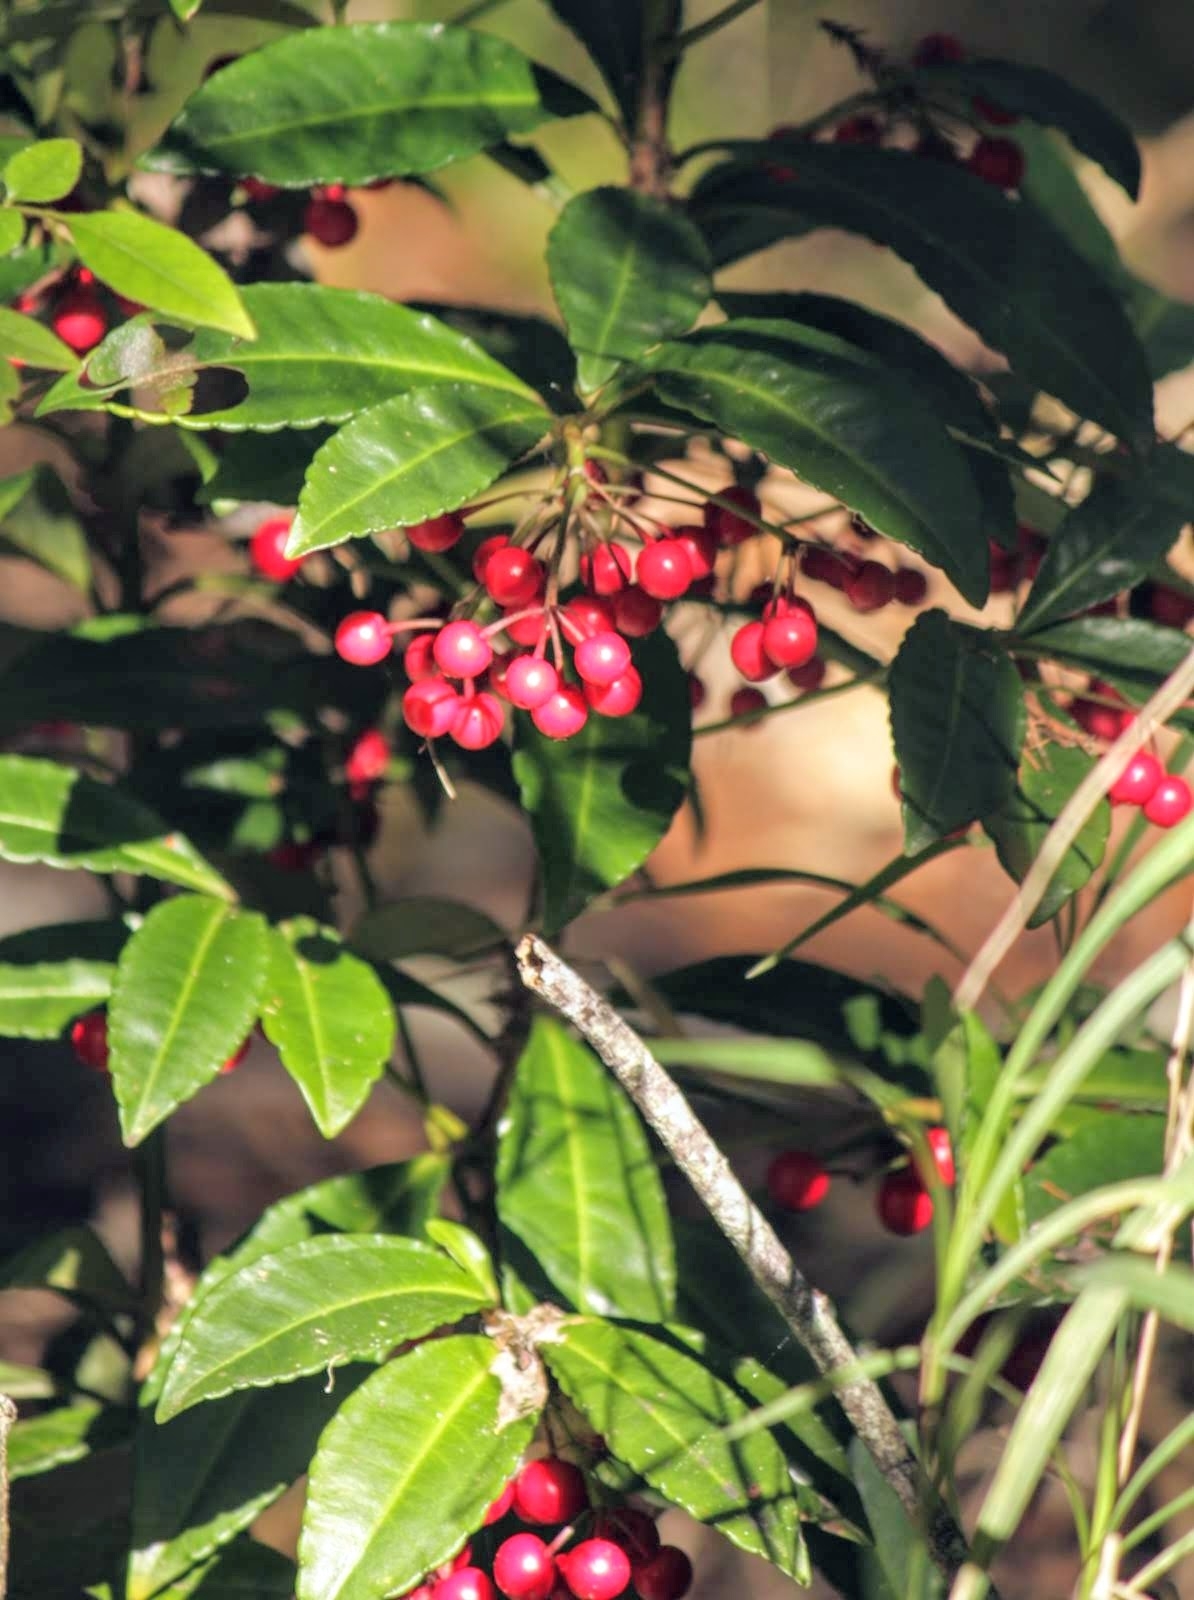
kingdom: Plantae
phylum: Tracheophyta
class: Magnoliopsida
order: Ericales
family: Primulaceae
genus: Ardisia
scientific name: Ardisia crenata
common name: Hen's eyes
